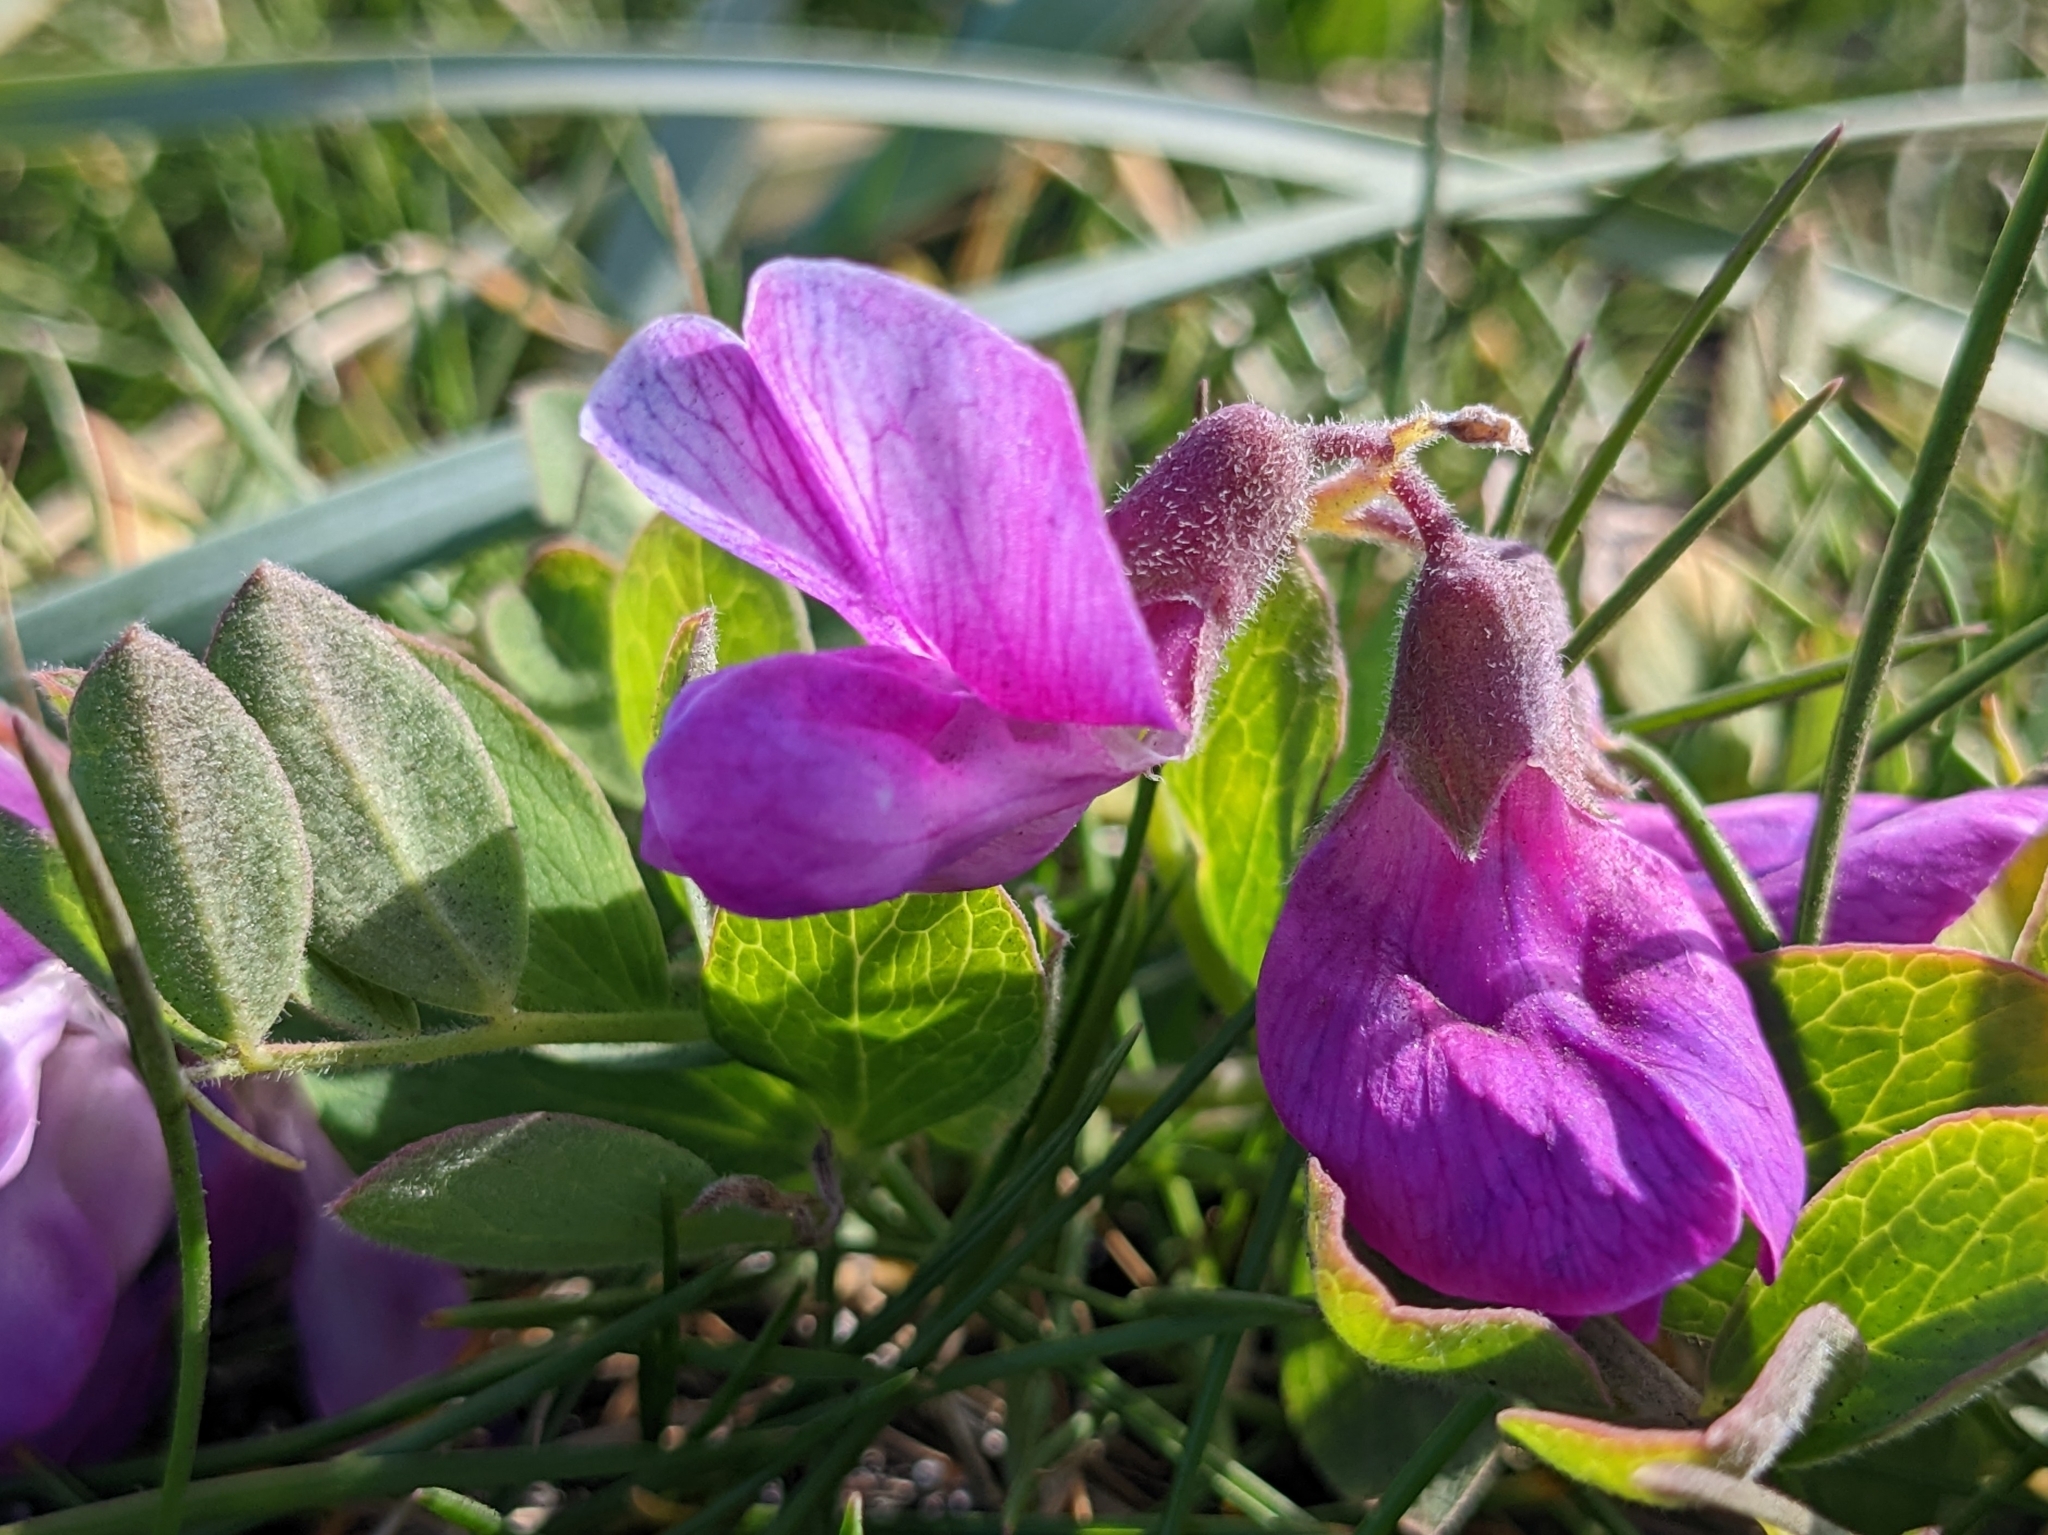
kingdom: Plantae
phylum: Tracheophyta
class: Magnoliopsida
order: Fabales
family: Fabaceae
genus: Lathyrus
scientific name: Lathyrus japonicus
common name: Sea pea
